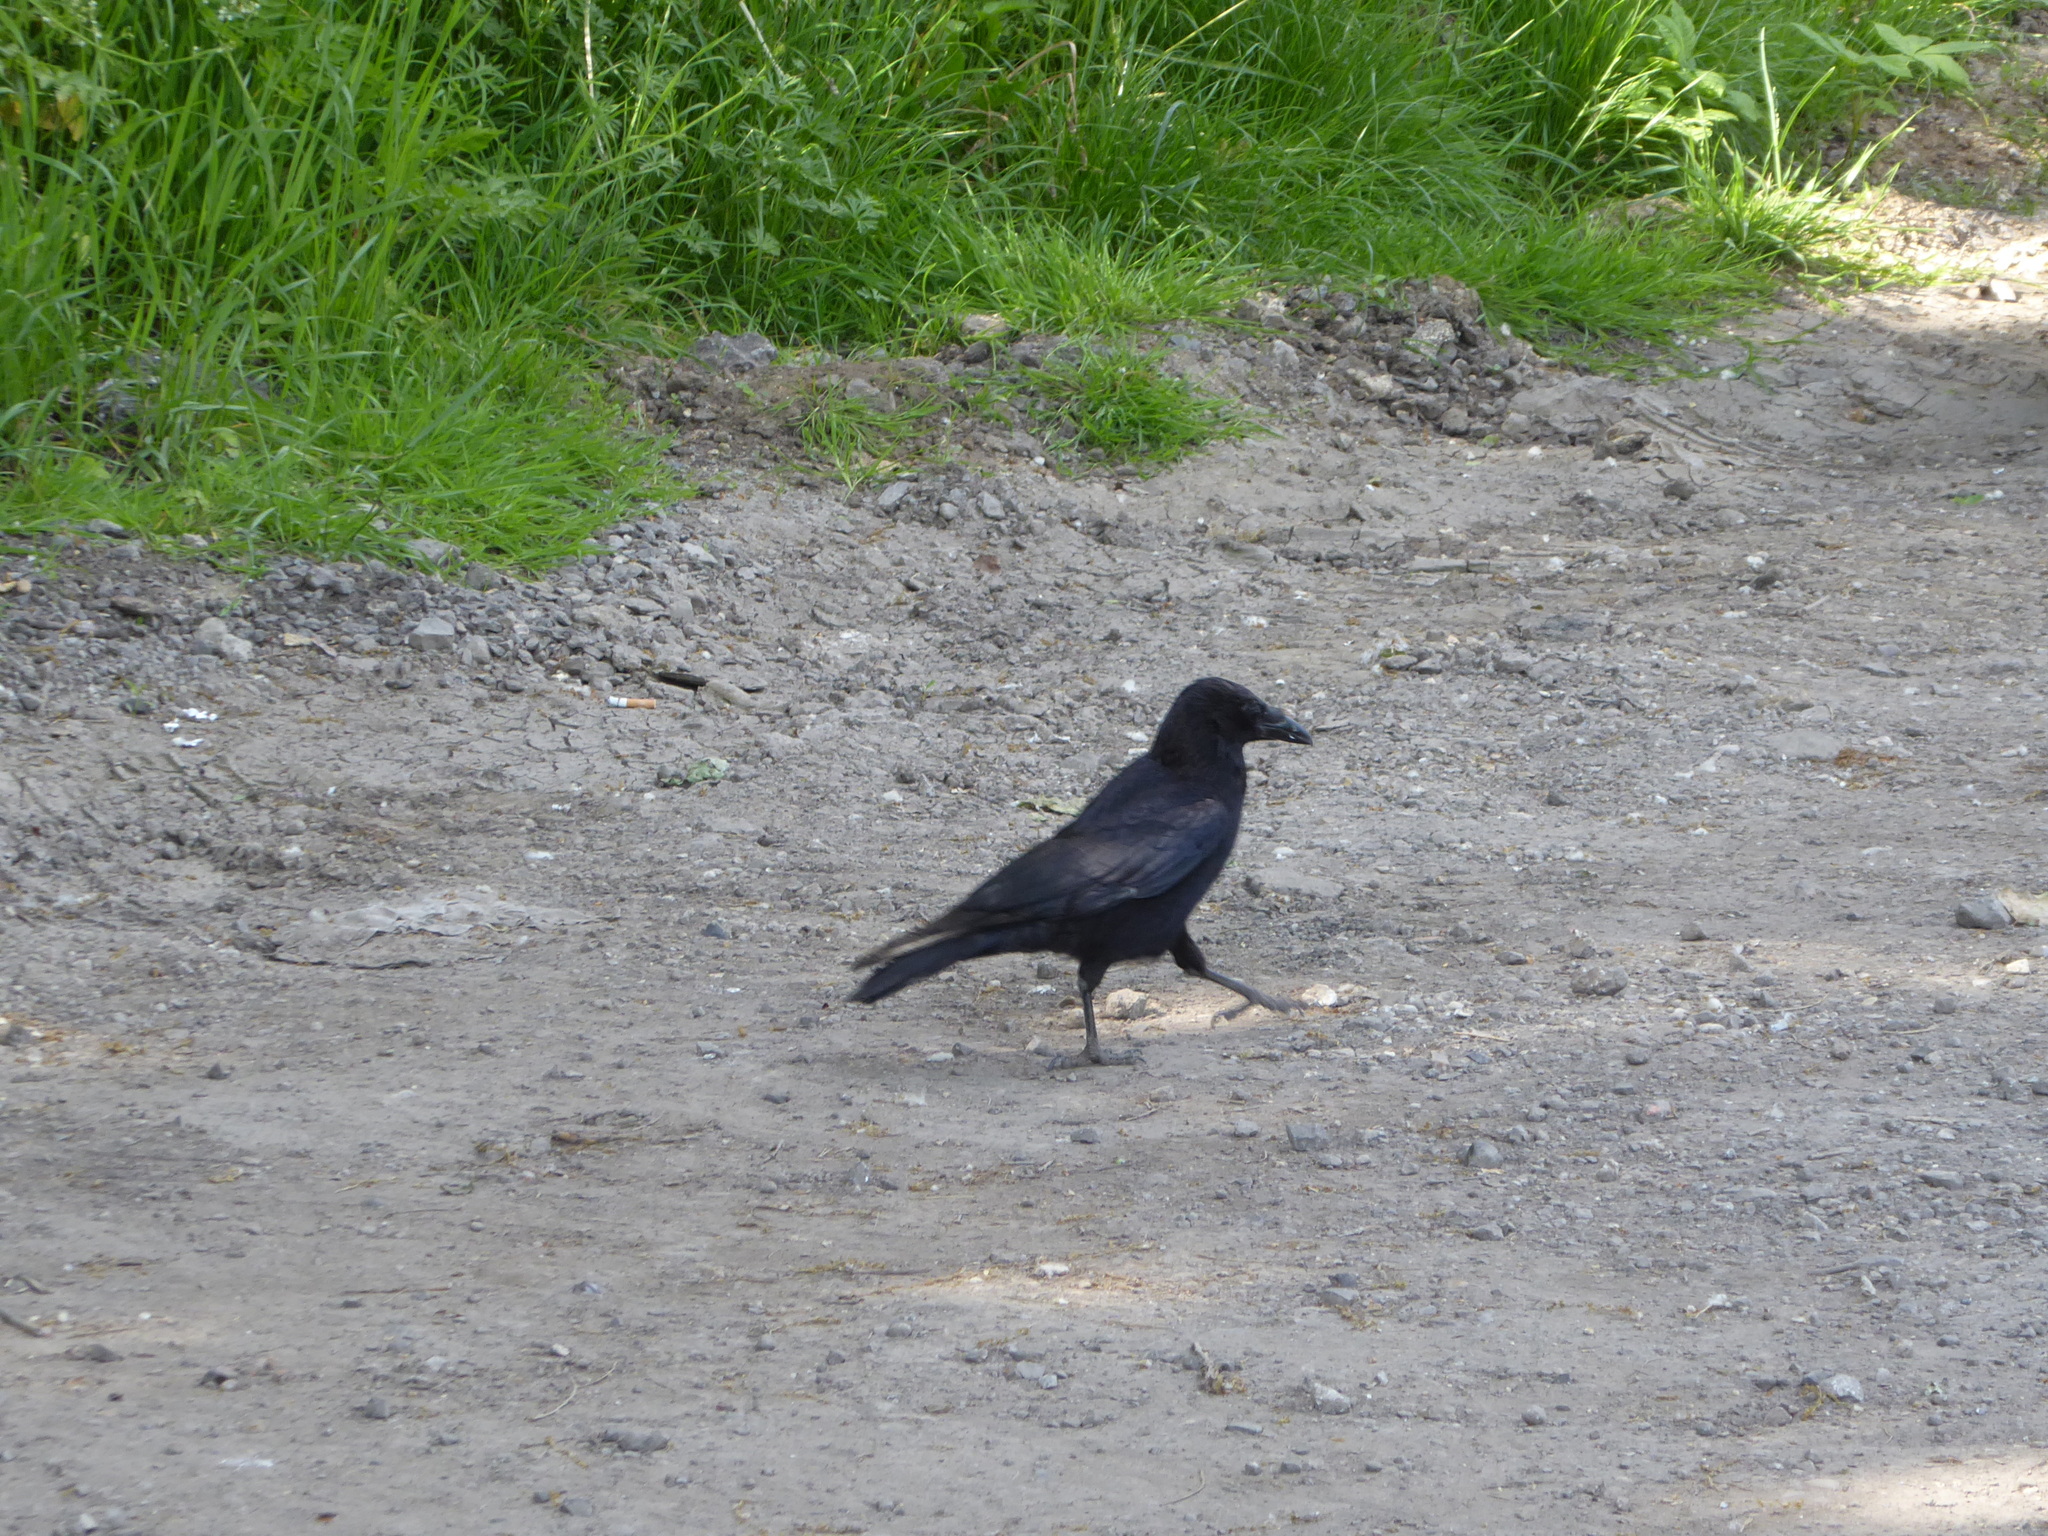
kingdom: Animalia
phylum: Chordata
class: Aves
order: Passeriformes
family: Corvidae
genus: Corvus
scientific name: Corvus corone
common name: Carrion crow
